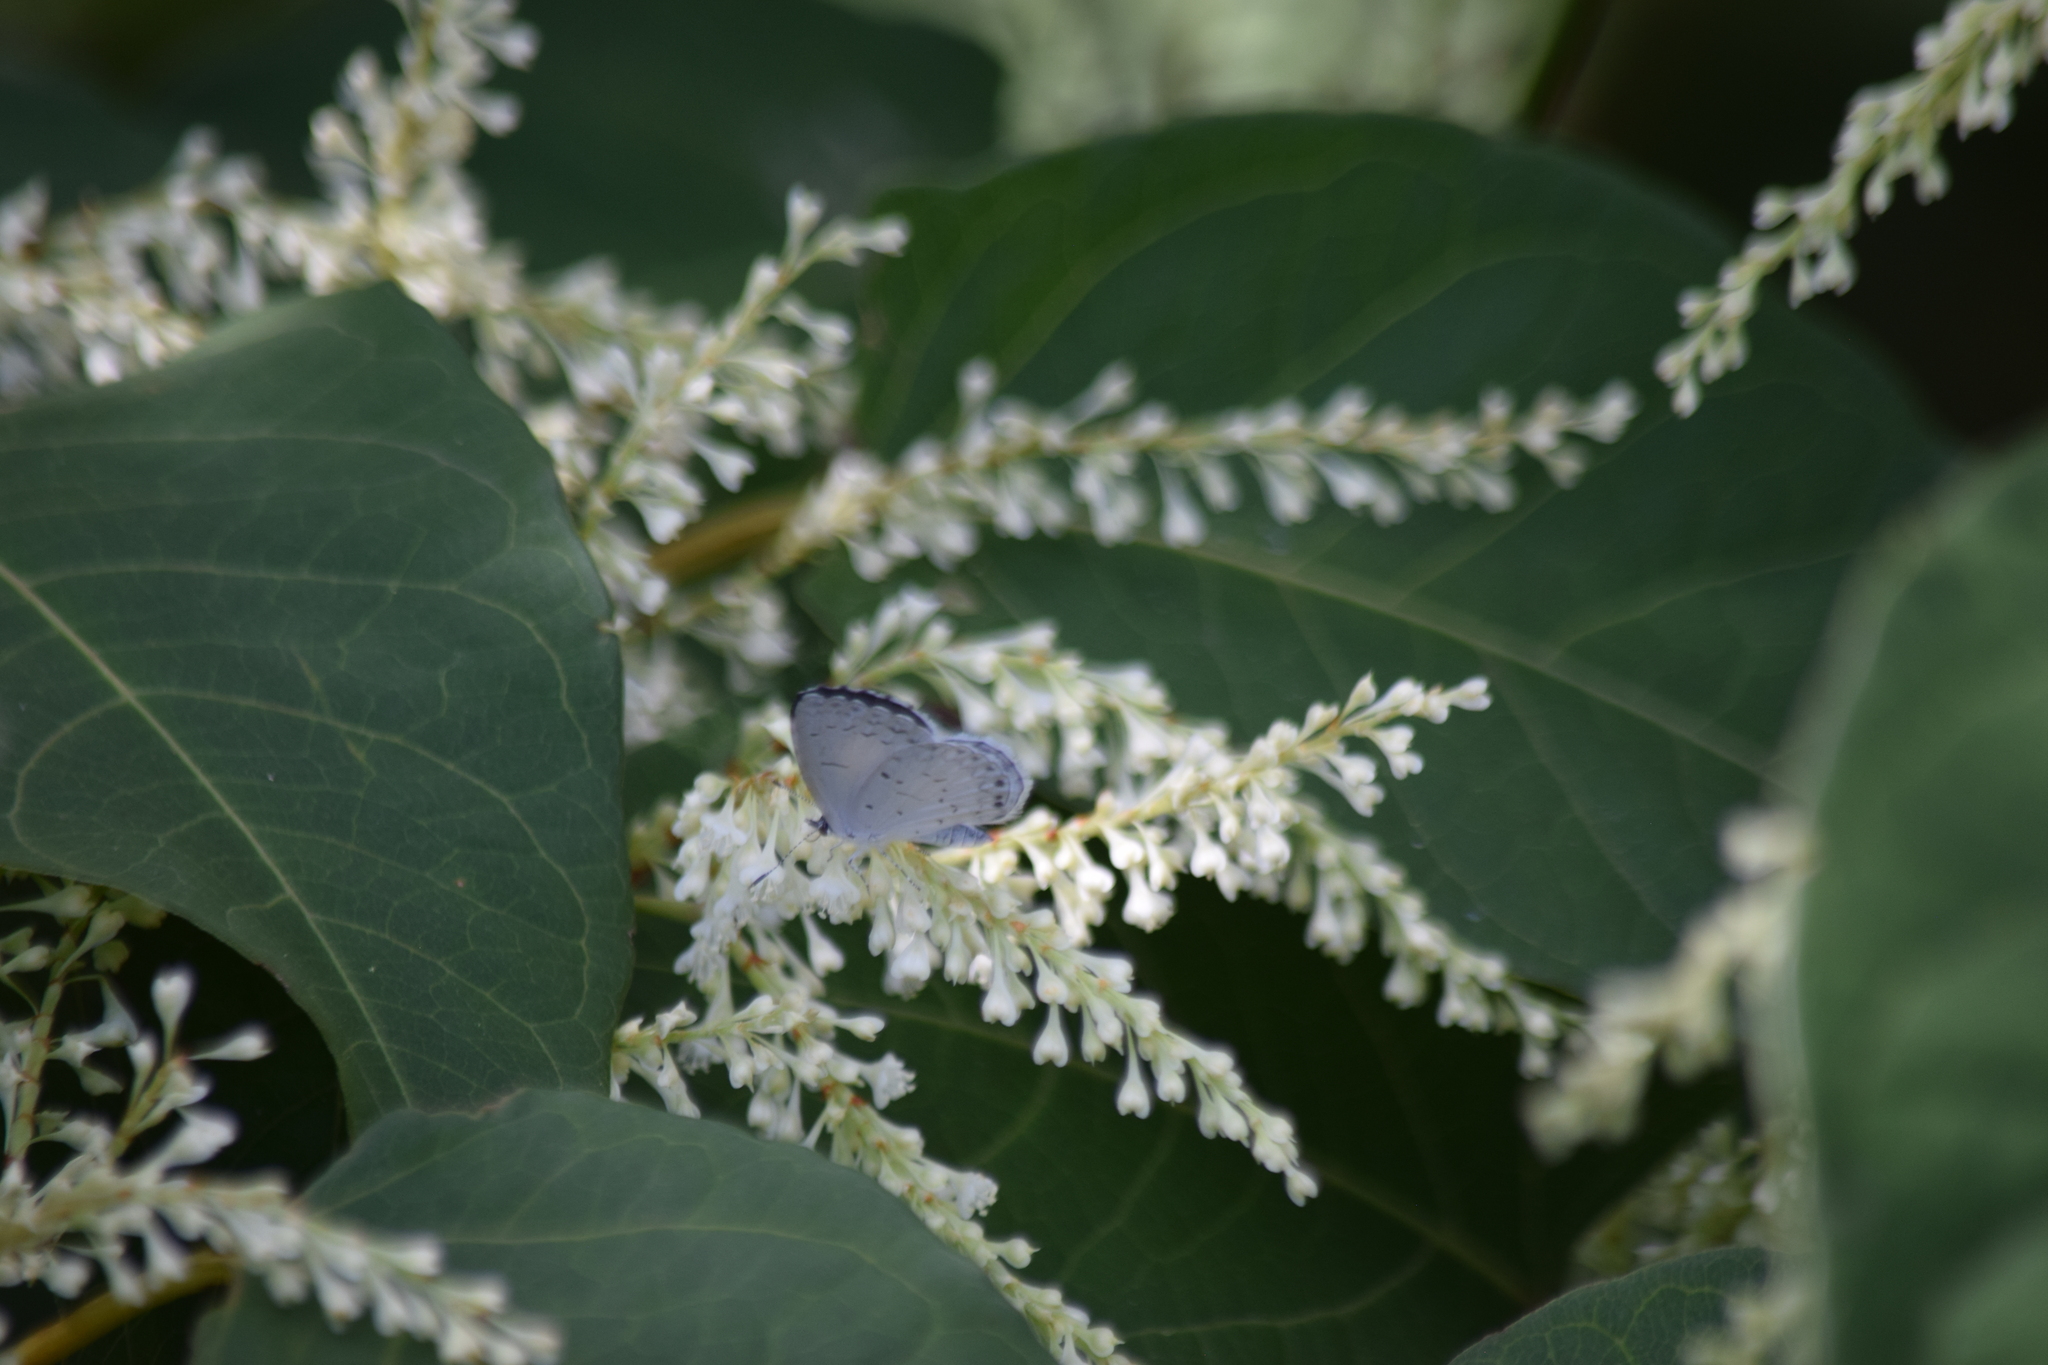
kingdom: Animalia
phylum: Arthropoda
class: Insecta
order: Lepidoptera
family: Lycaenidae
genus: Cyaniris
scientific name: Cyaniris neglecta
